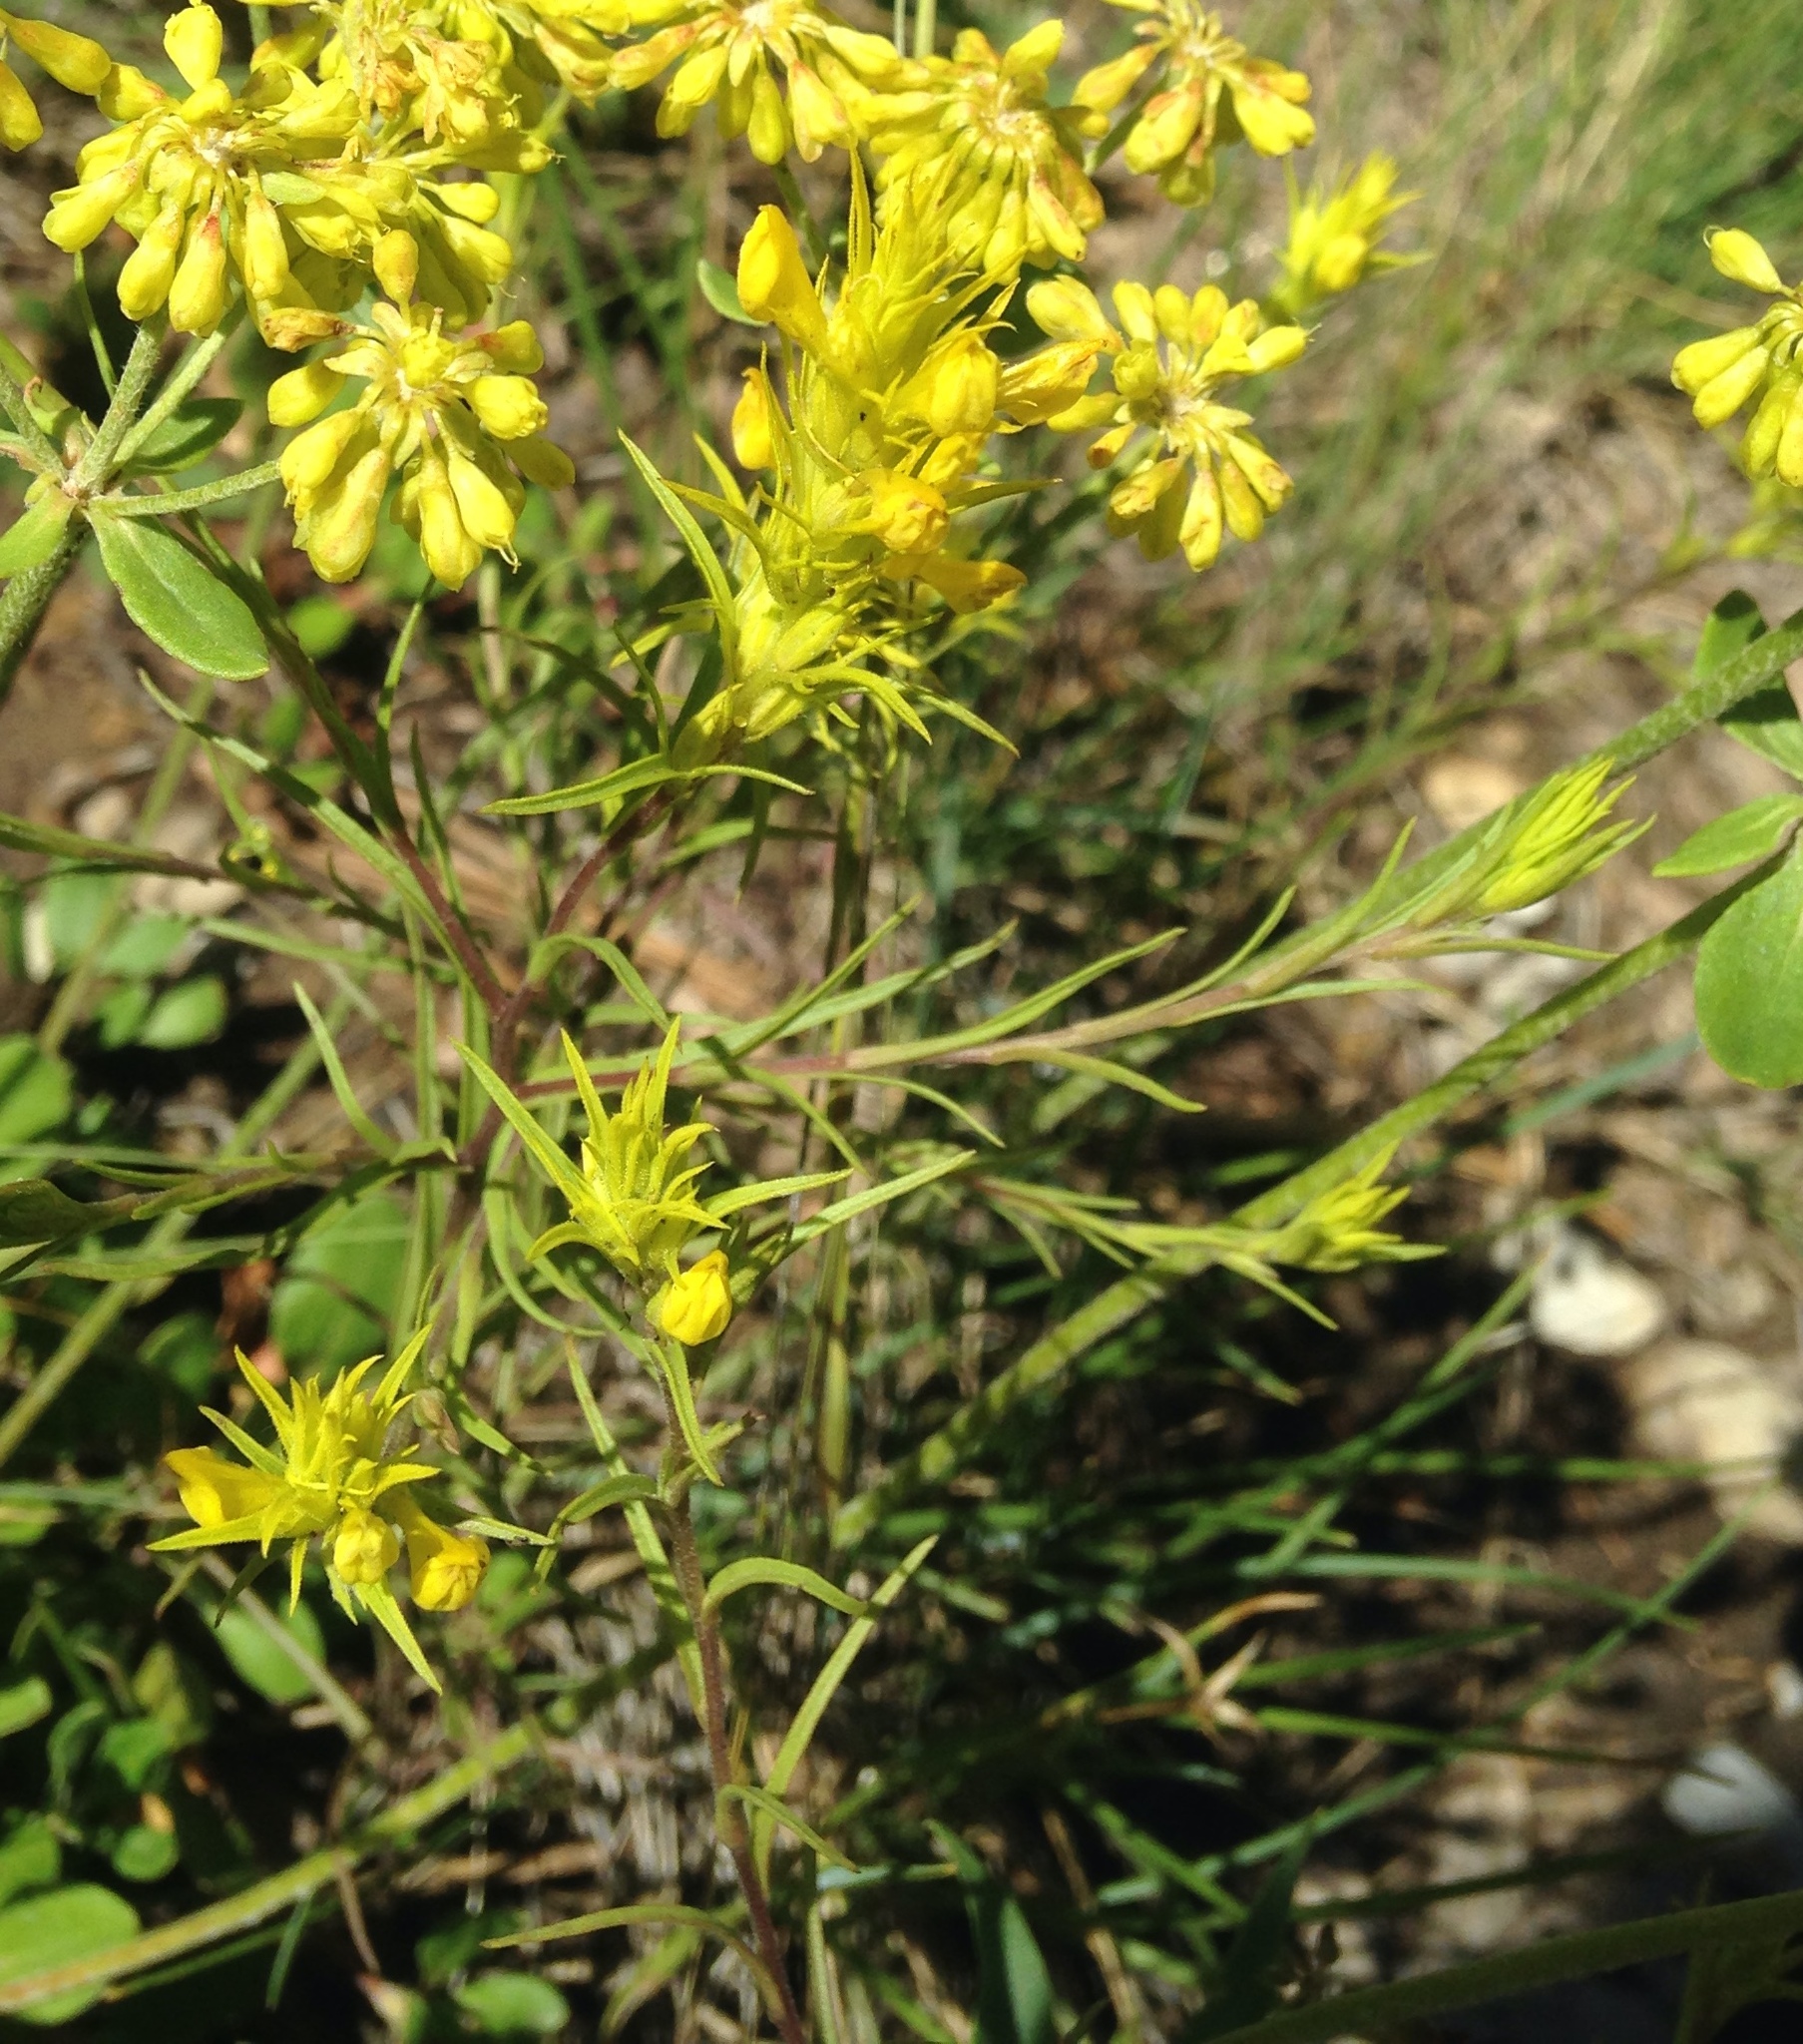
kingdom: Plantae
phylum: Tracheophyta
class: Magnoliopsida
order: Lamiales
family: Orobanchaceae
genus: Orthocarpus
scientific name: Orthocarpus tolmiei
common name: Tolmie's owl-clover
